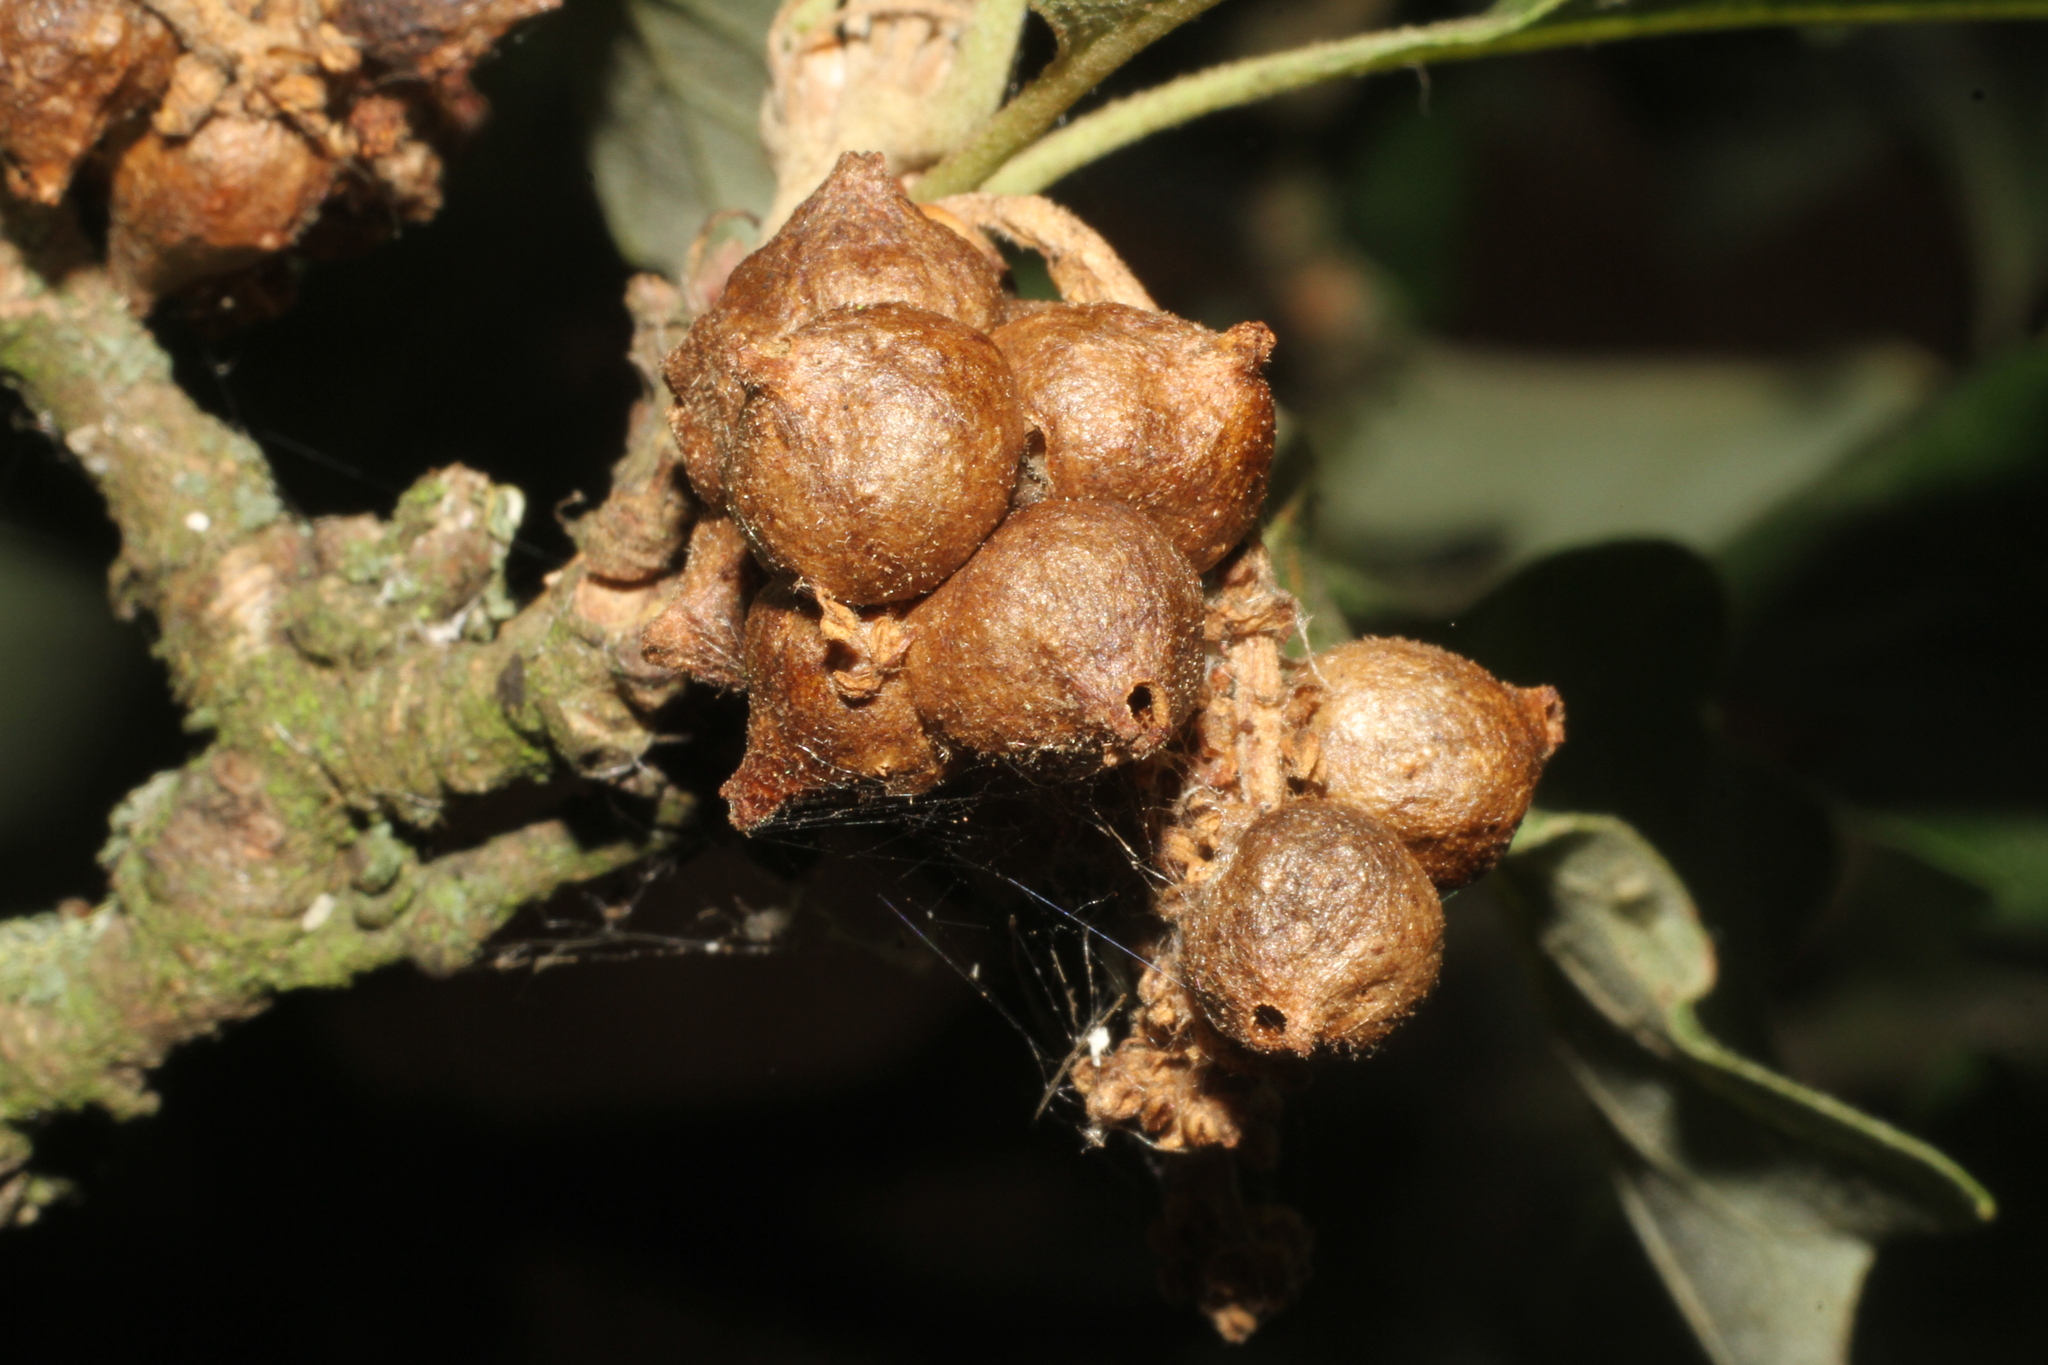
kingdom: Animalia
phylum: Arthropoda
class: Insecta
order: Hymenoptera
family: Cynipidae
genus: Andricus
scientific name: Andricus grossulariae
